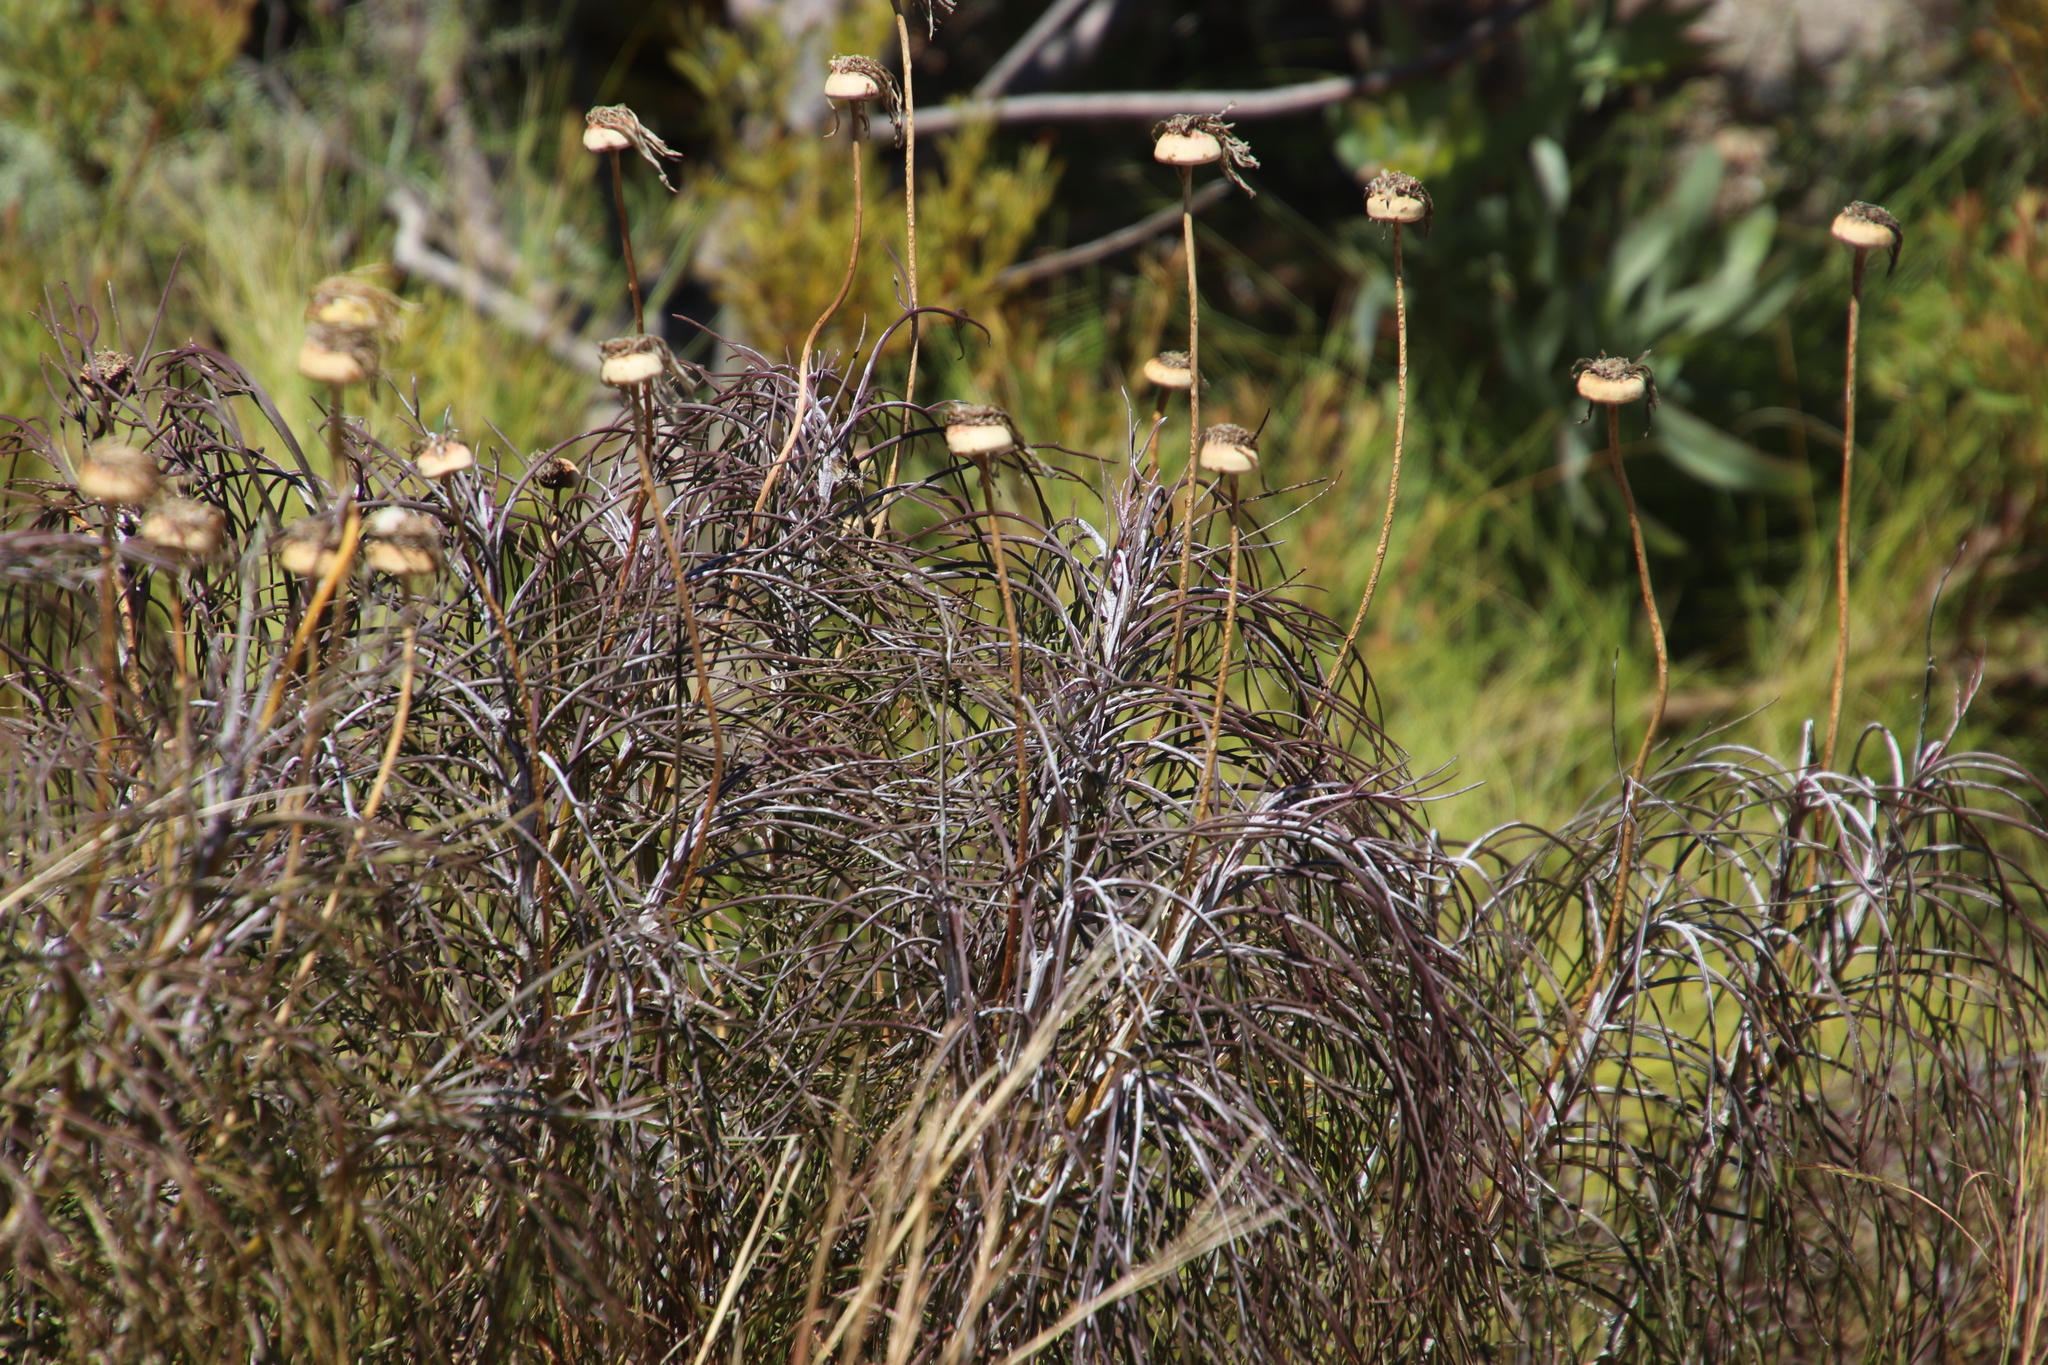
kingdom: Plantae
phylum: Tracheophyta
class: Magnoliopsida
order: Asterales
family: Asteraceae
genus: Euryops
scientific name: Euryops speciosissimus
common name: Clanwilliam daisy
